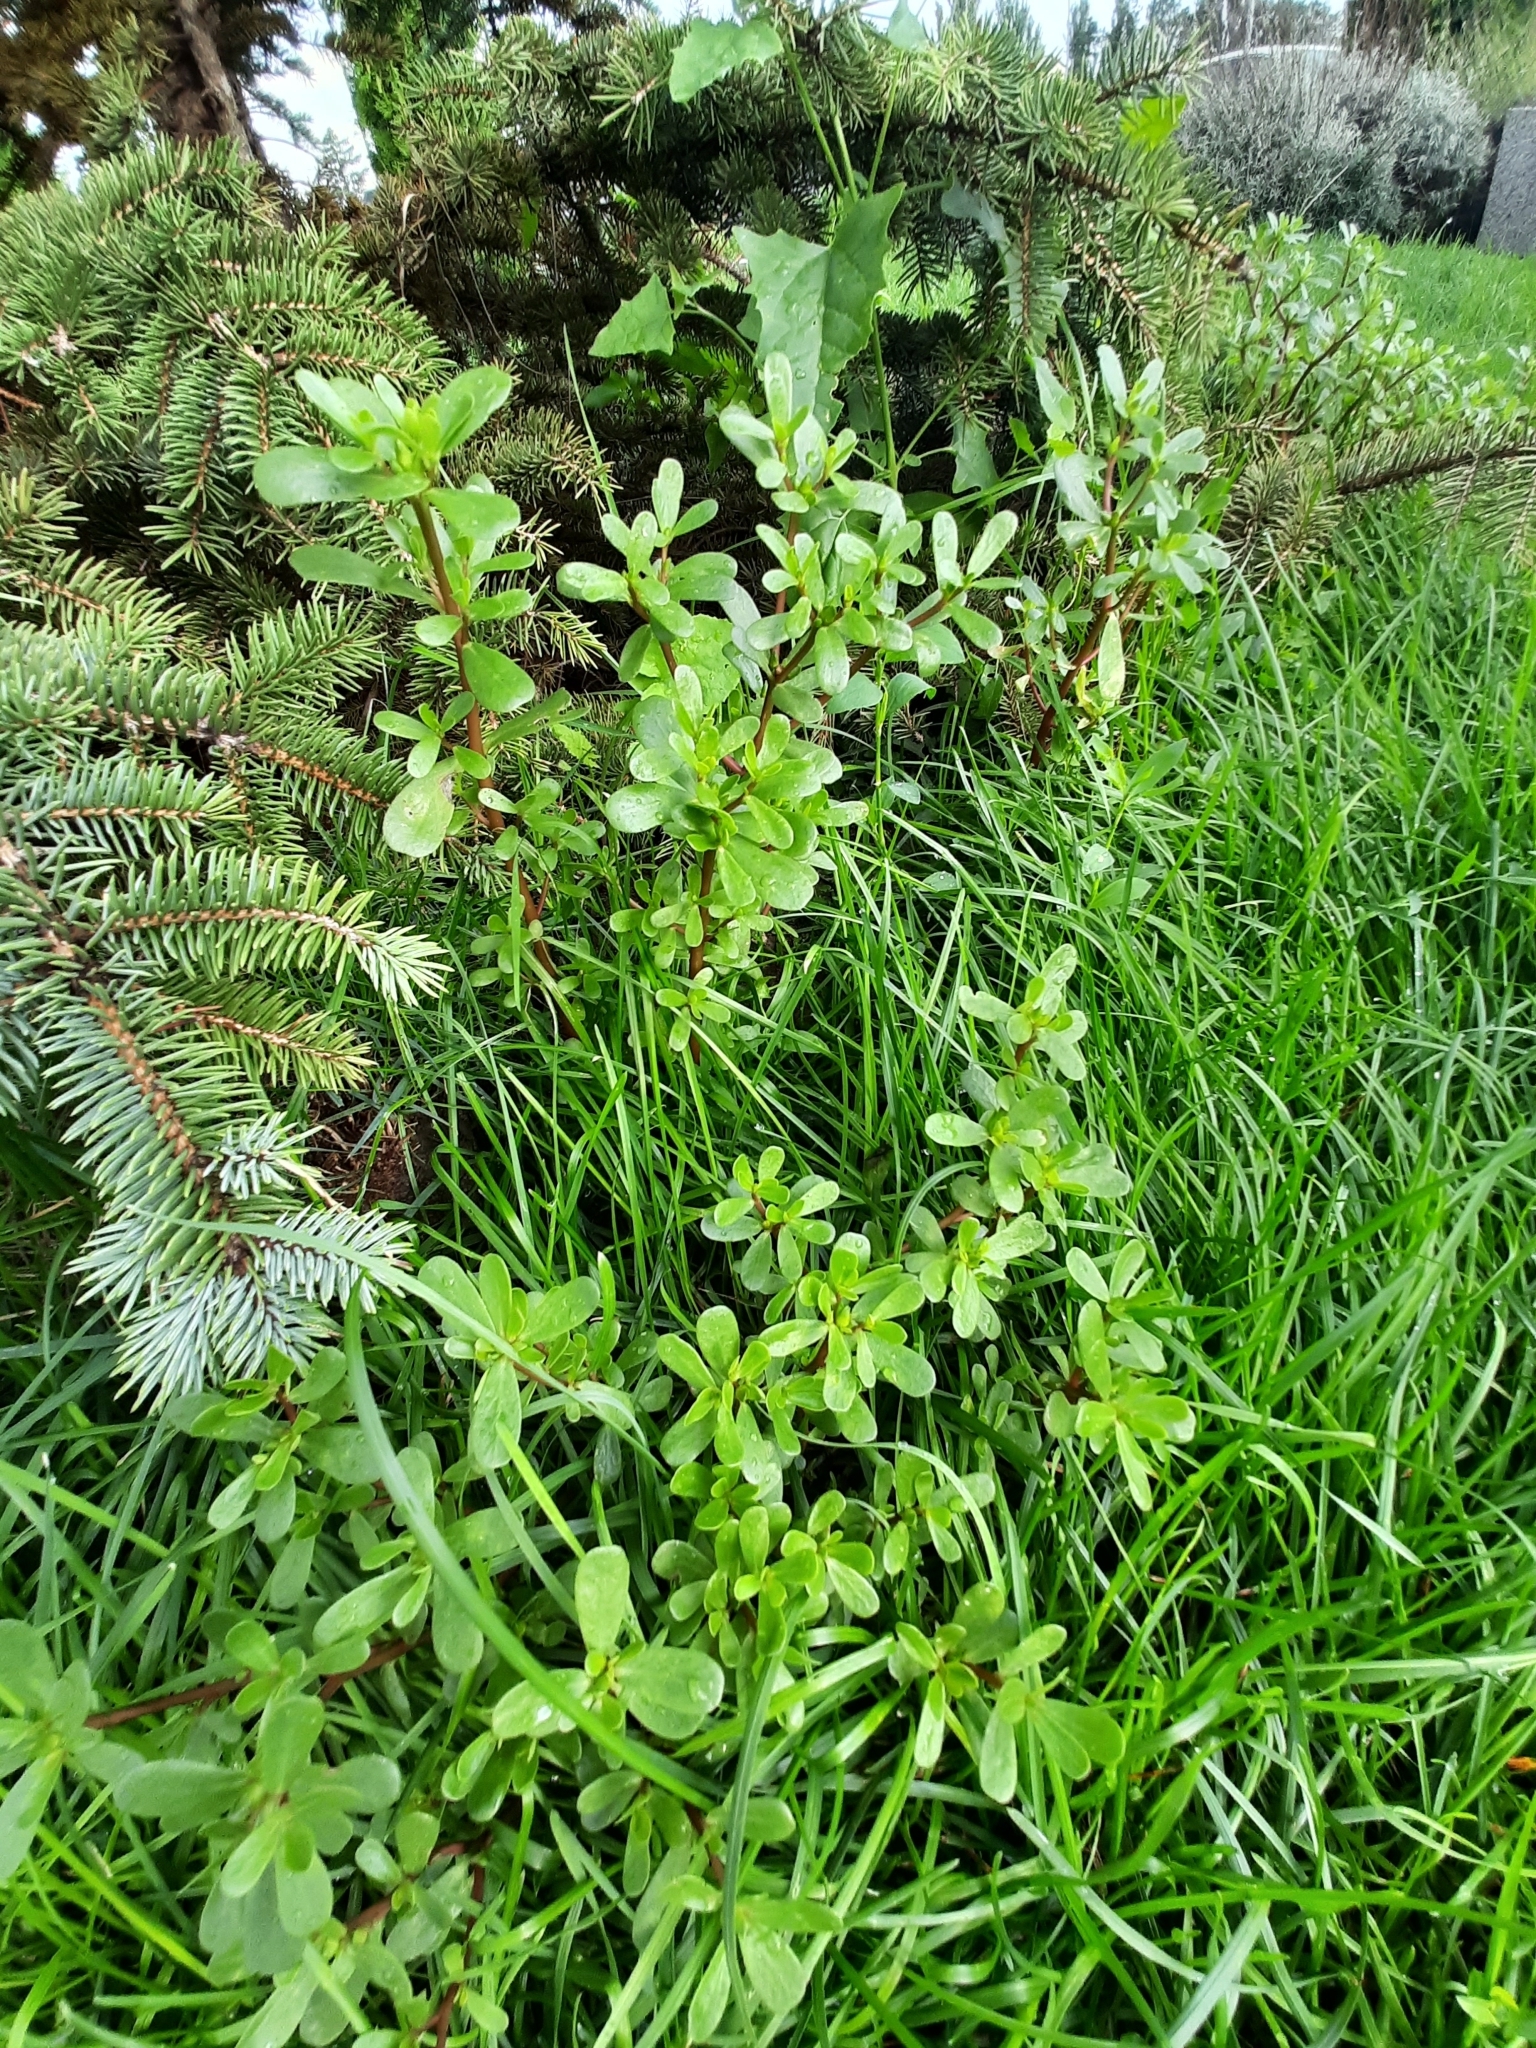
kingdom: Plantae
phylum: Tracheophyta
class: Magnoliopsida
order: Caryophyllales
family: Portulacaceae
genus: Portulaca
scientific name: Portulaca oleracea
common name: Common purslane
